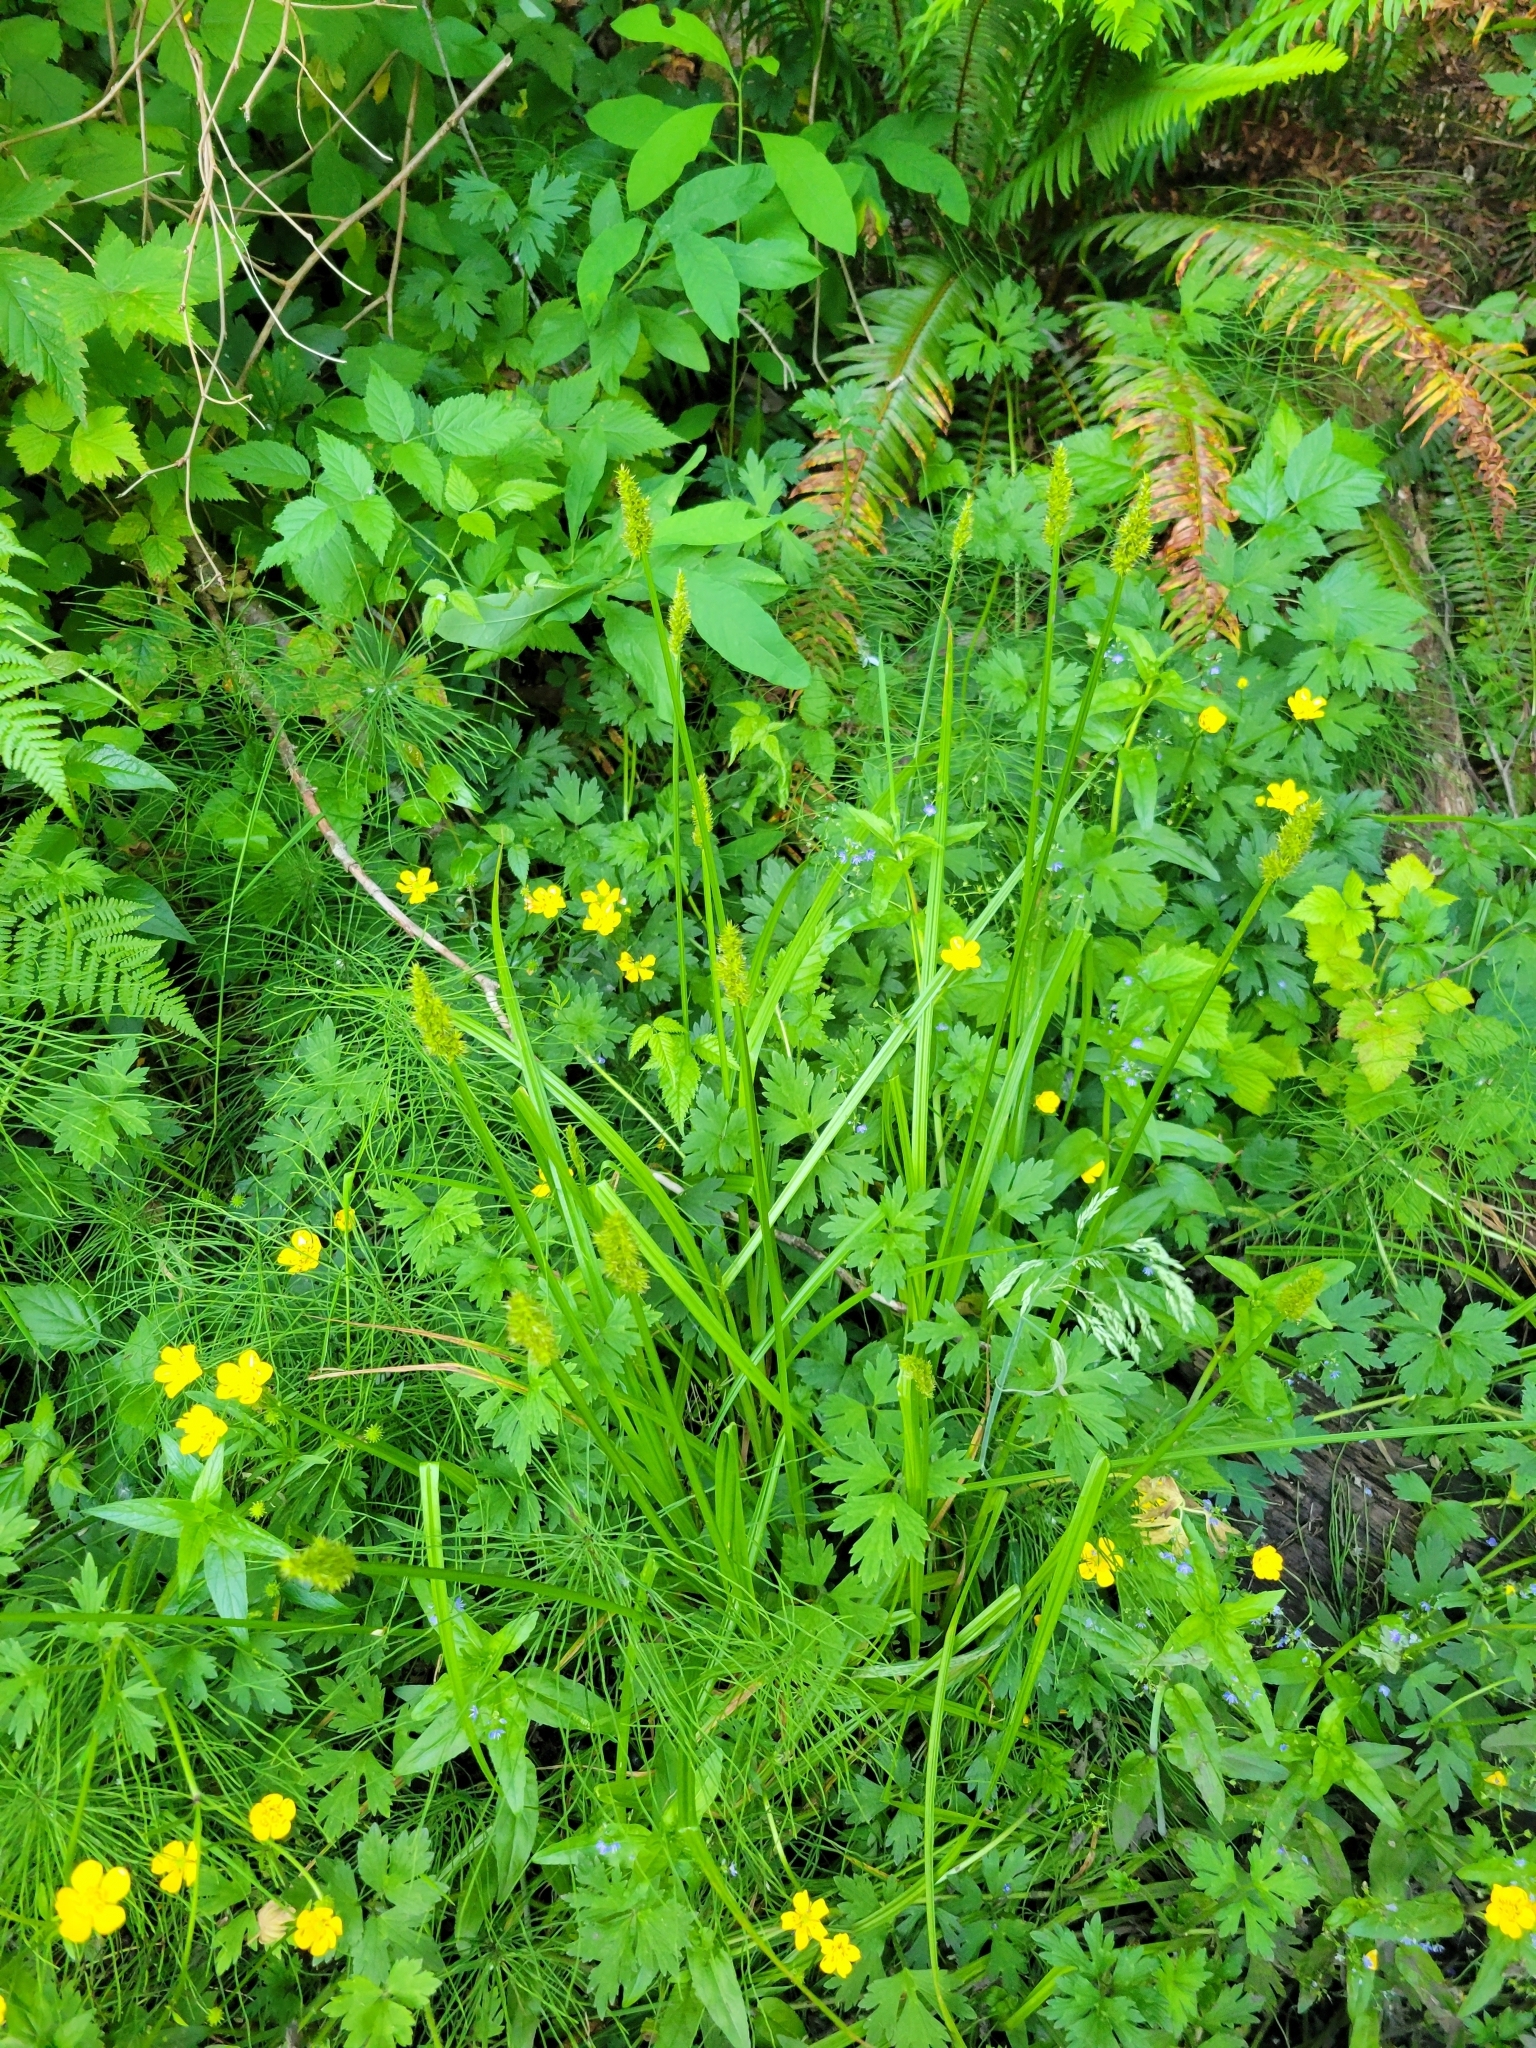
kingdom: Plantae
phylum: Tracheophyta
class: Liliopsida
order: Poales
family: Cyperaceae
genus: Carex
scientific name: Carex stipata
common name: Awl-fruited sedge
